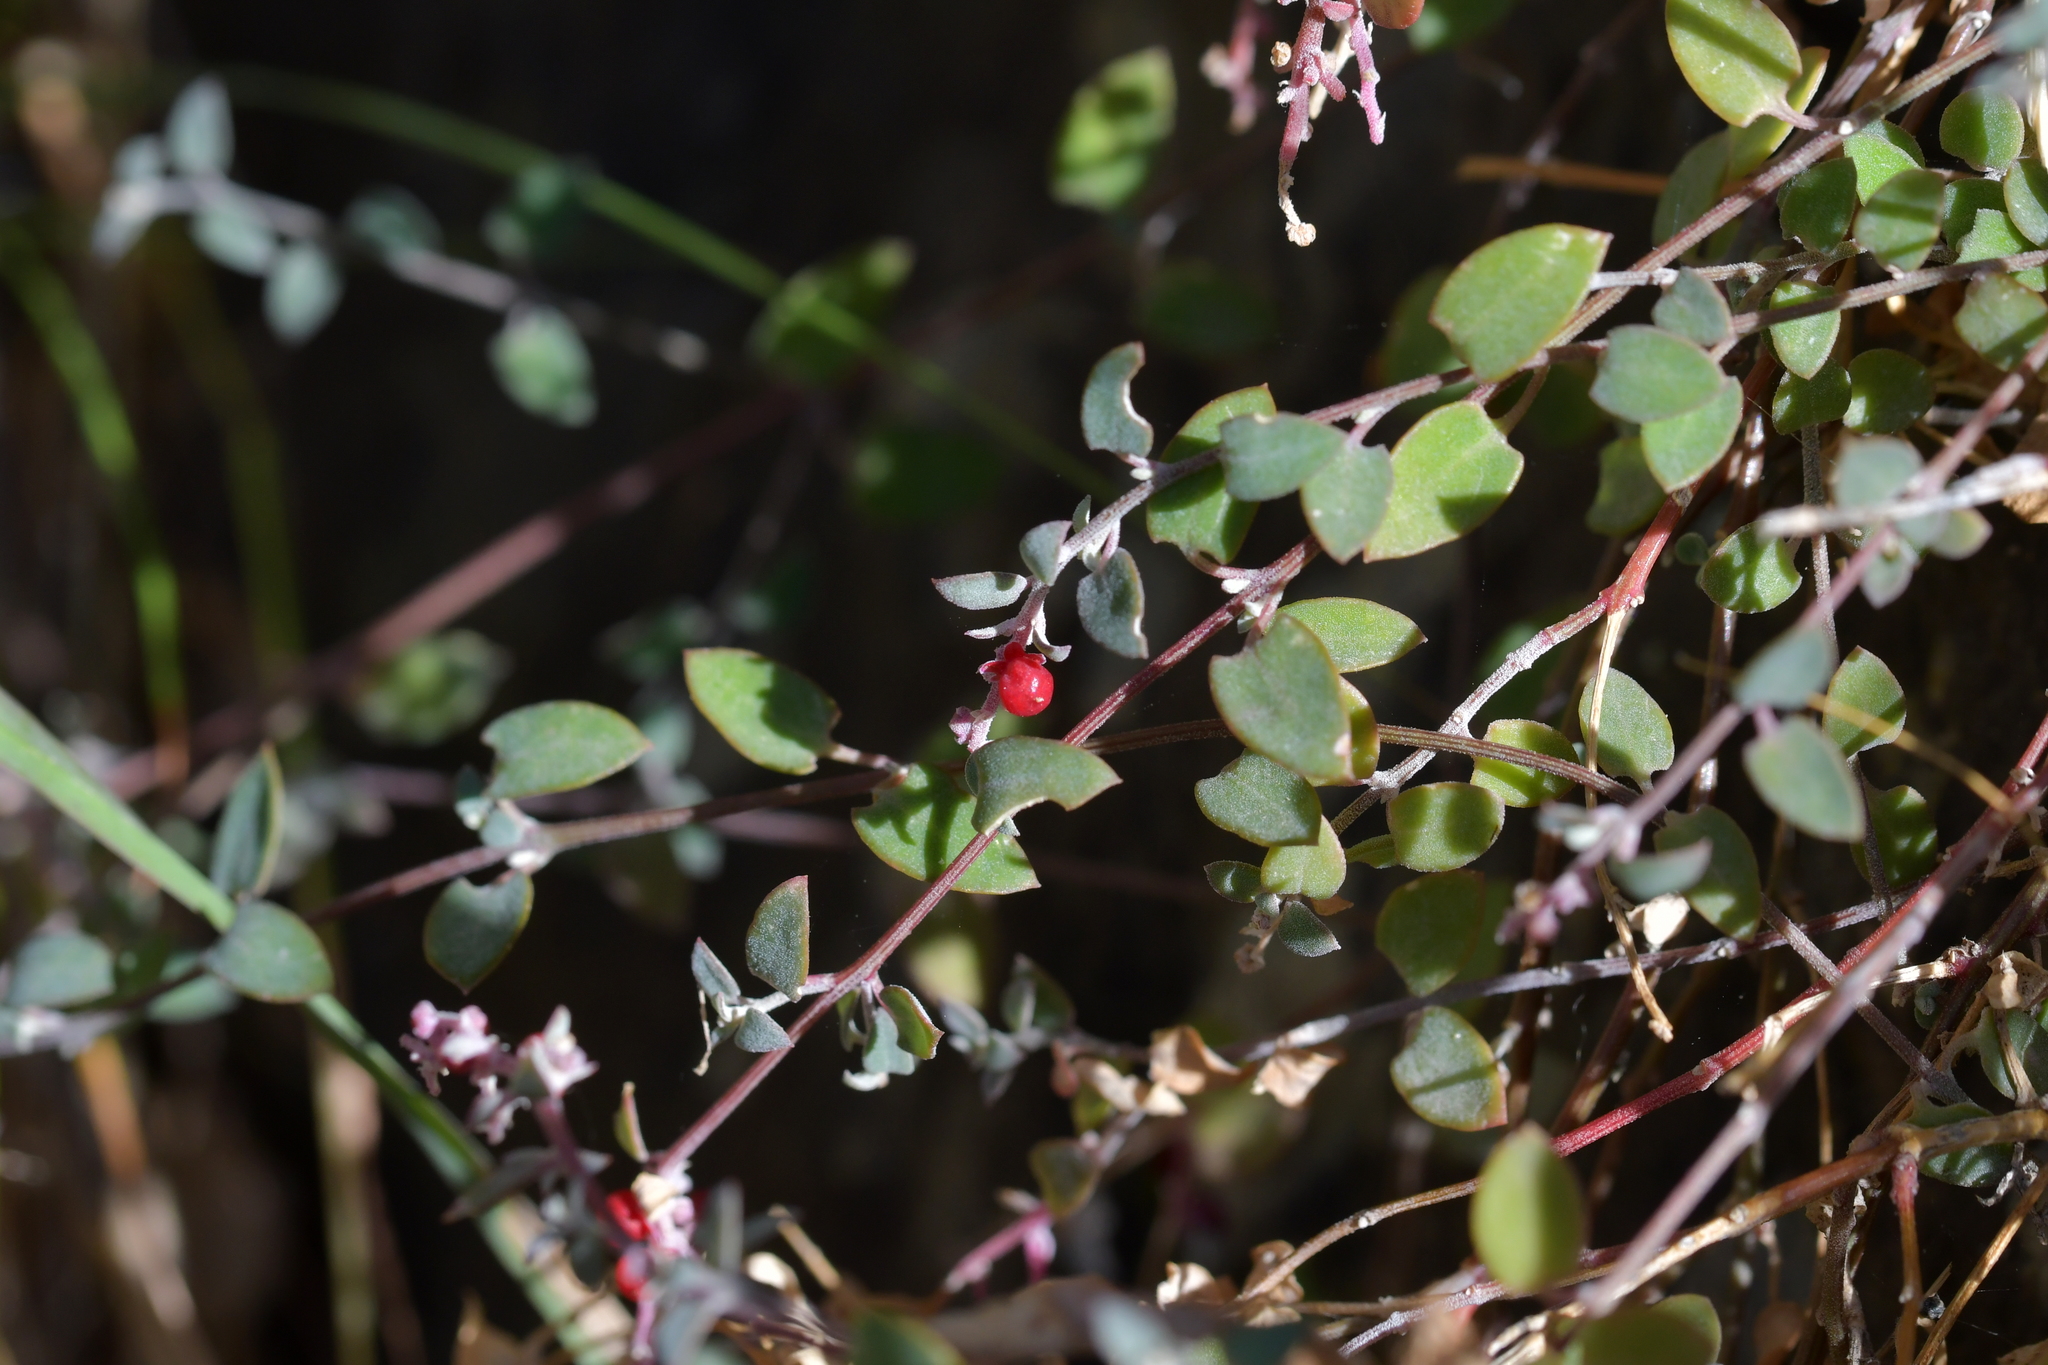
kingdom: Plantae
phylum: Tracheophyta
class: Magnoliopsida
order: Caryophyllales
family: Amaranthaceae
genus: Chenopodium
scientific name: Chenopodium triandrum
